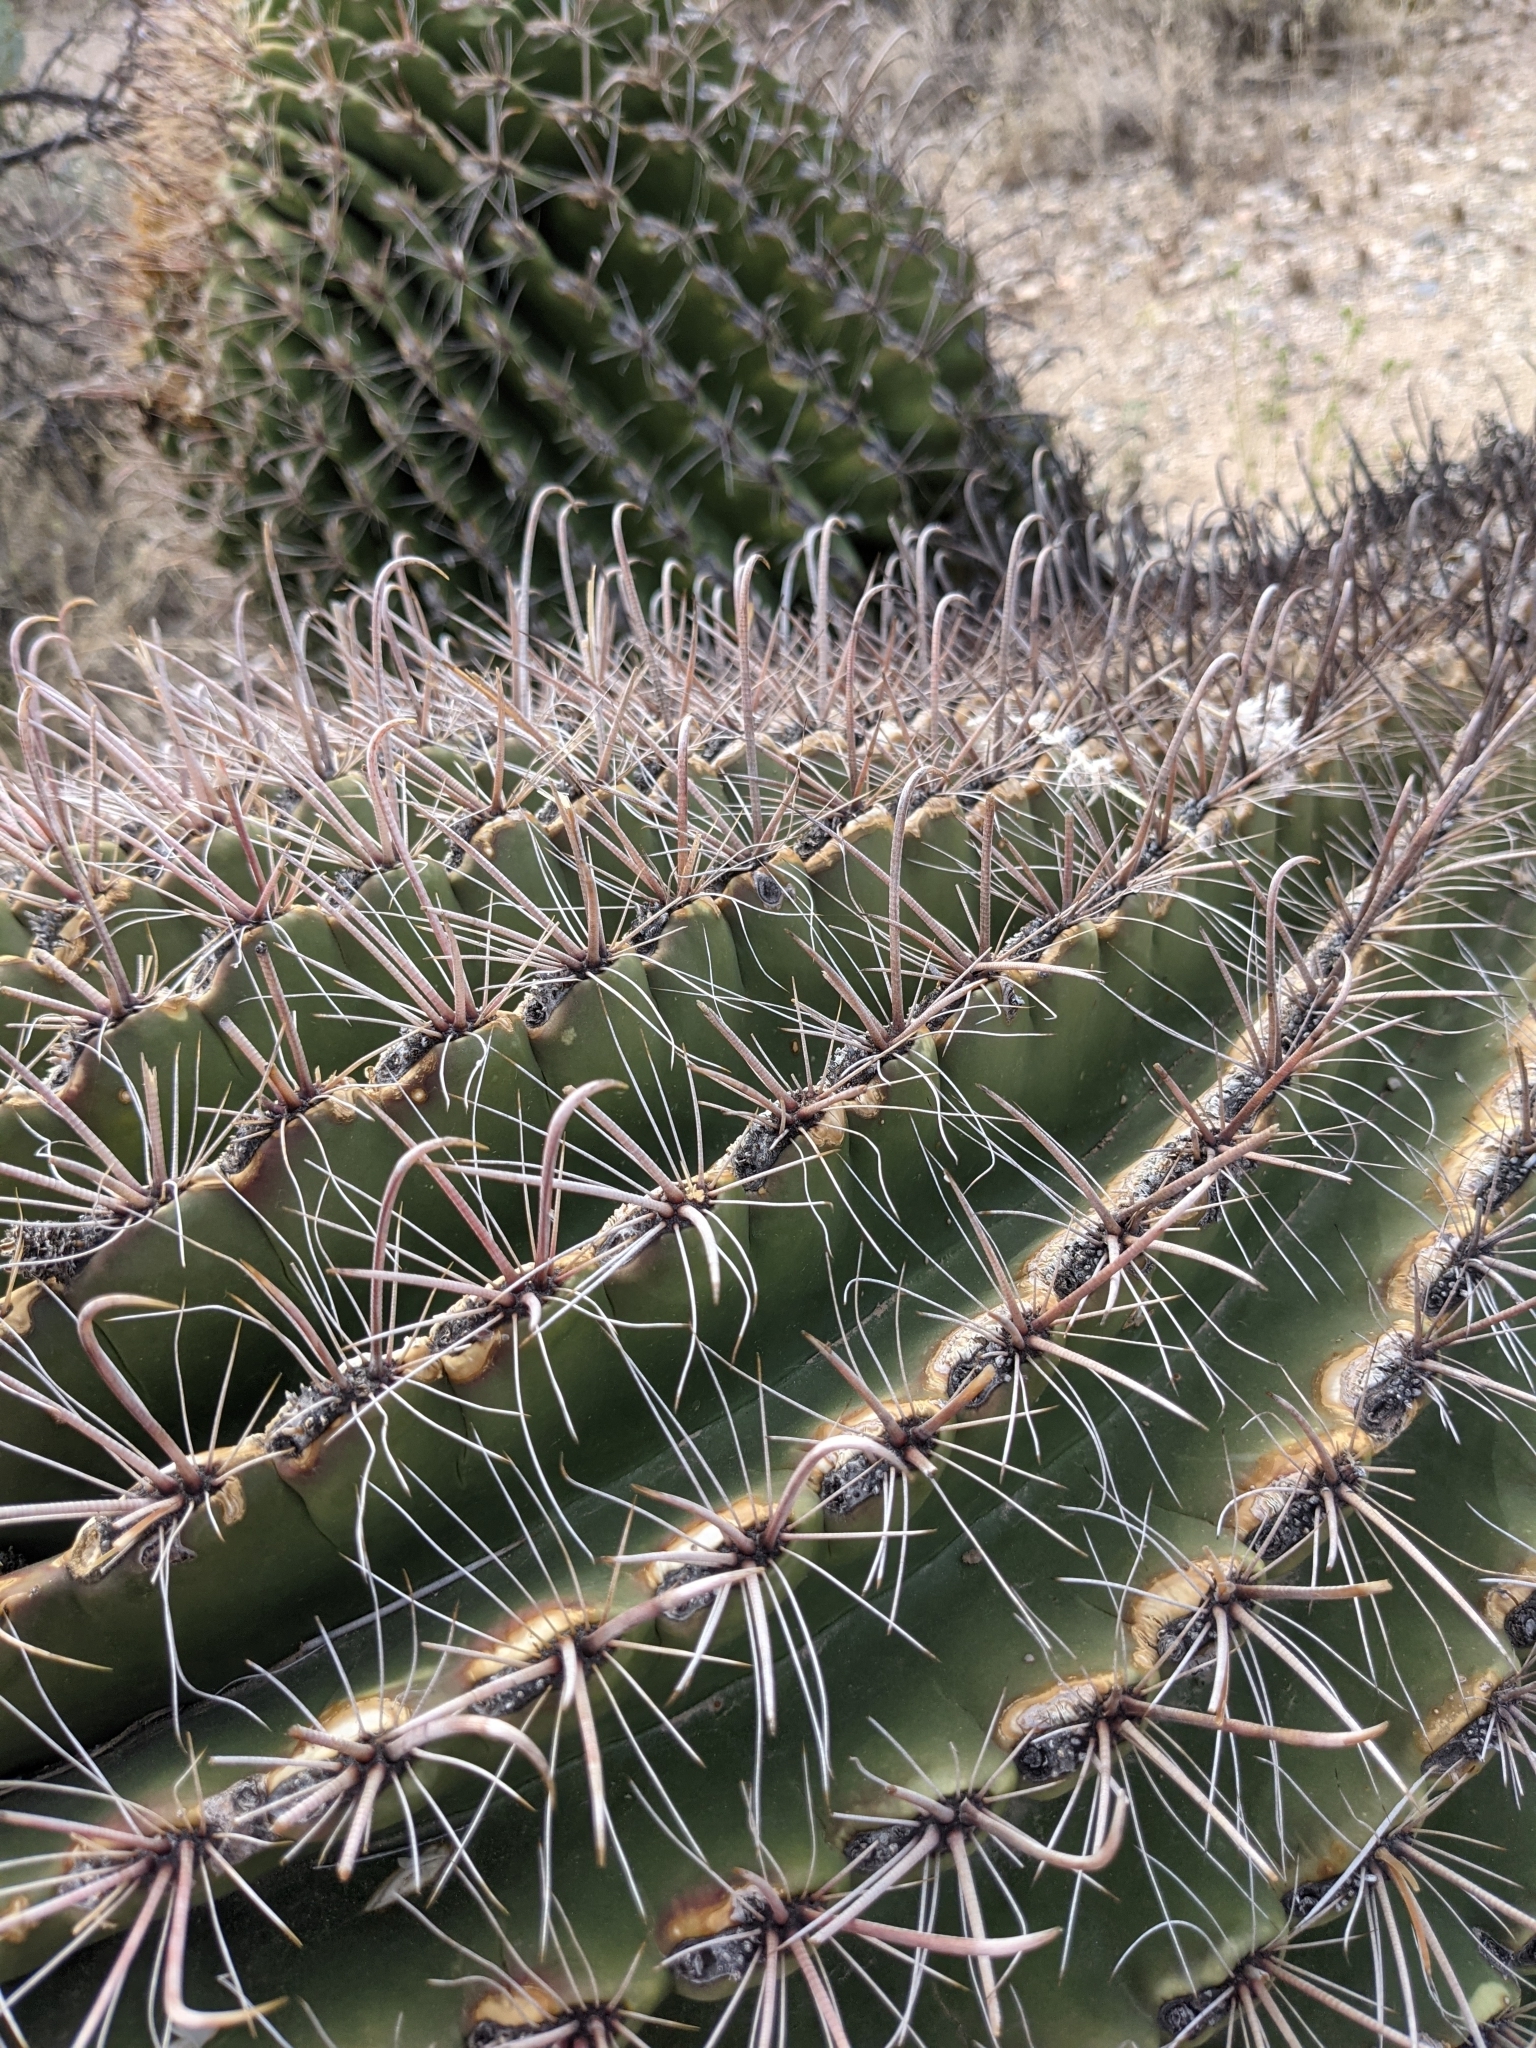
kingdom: Plantae
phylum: Tracheophyta
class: Magnoliopsida
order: Caryophyllales
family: Cactaceae
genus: Ferocactus
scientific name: Ferocactus wislizeni
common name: Candy barrel cactus
